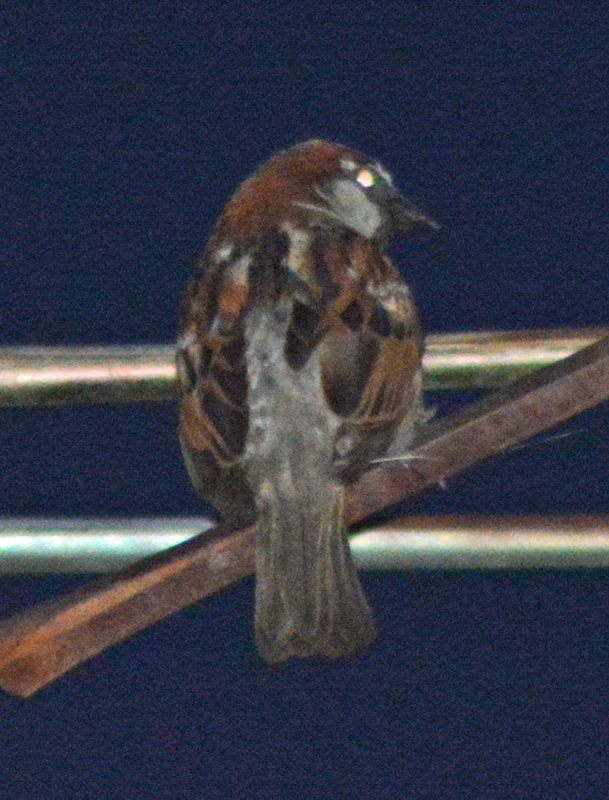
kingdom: Animalia
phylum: Chordata
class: Aves
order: Passeriformes
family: Passeridae
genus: Passer
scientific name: Passer domesticus
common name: House sparrow
